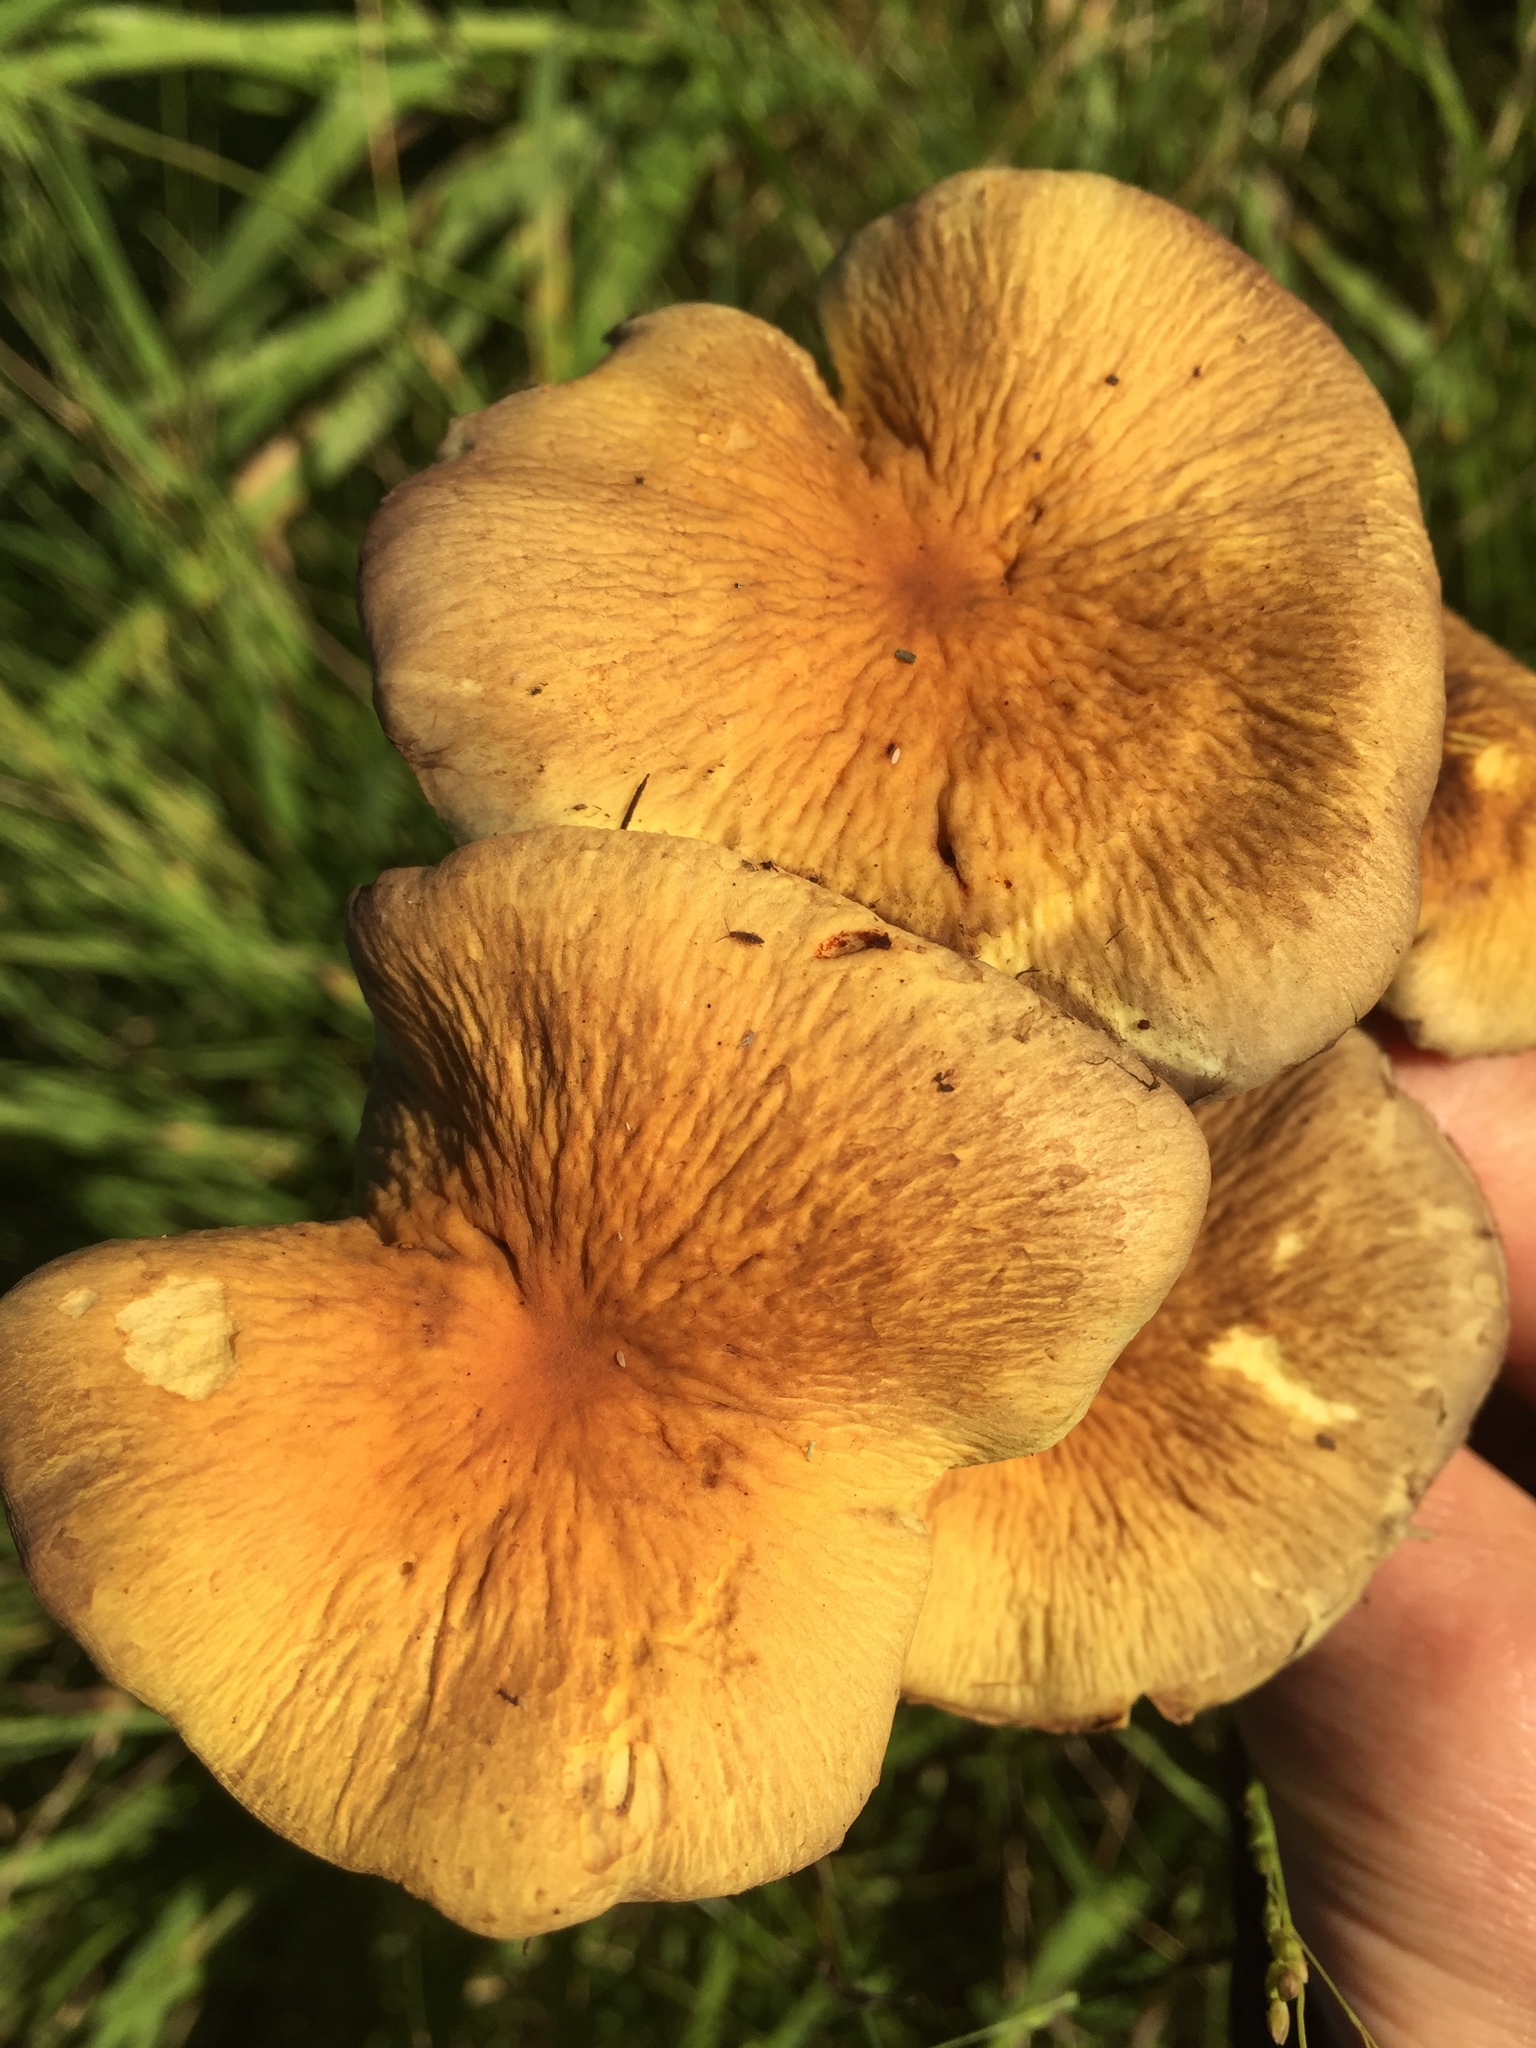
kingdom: Fungi
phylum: Basidiomycota
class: Agaricomycetes
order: Agaricales
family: Strophariaceae
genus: Hypholoma
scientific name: Hypholoma fasciculare
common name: Sulphur tuft
